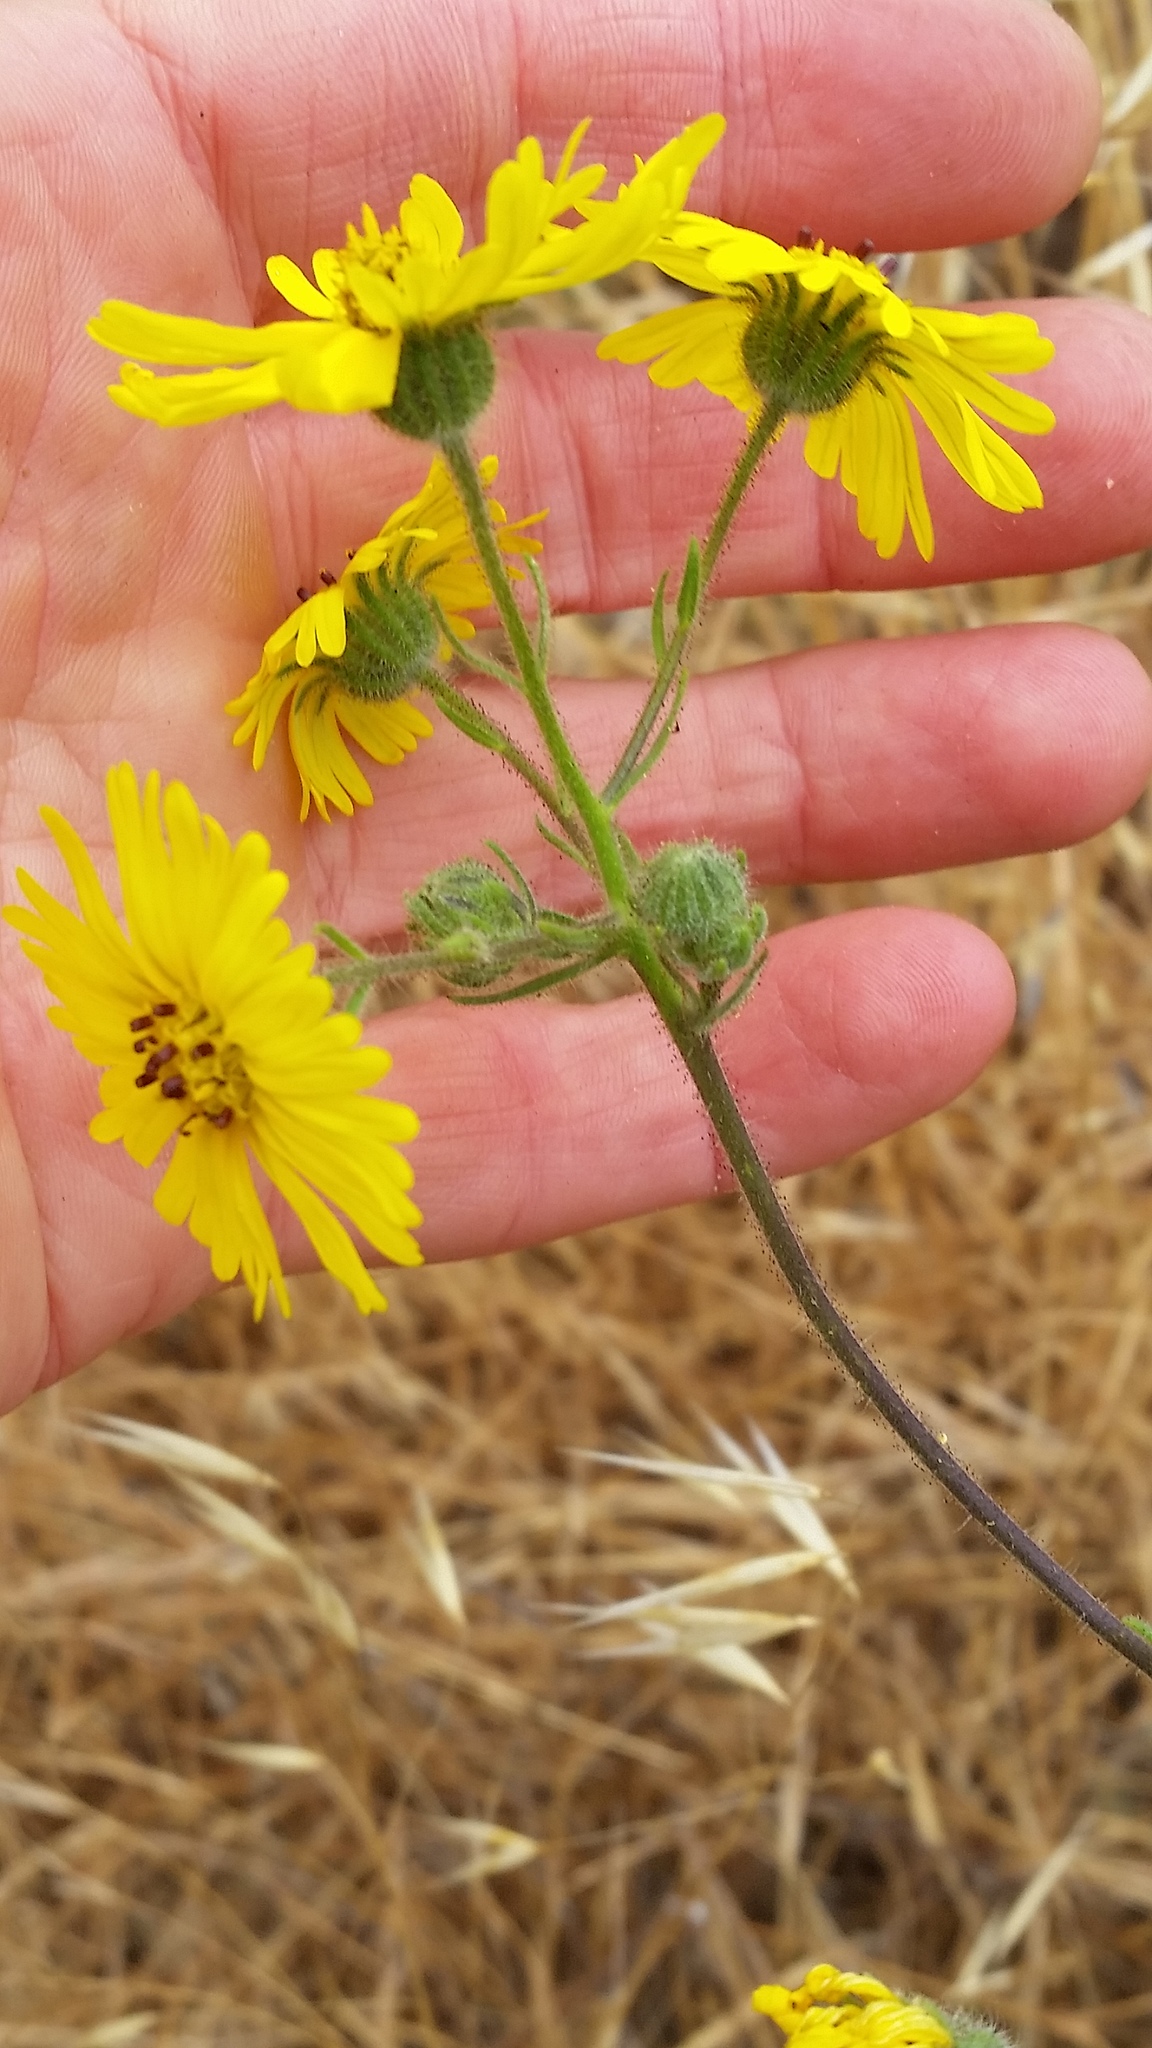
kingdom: Plantae
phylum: Tracheophyta
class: Magnoliopsida
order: Asterales
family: Asteraceae
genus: Madia
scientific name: Madia elegans
